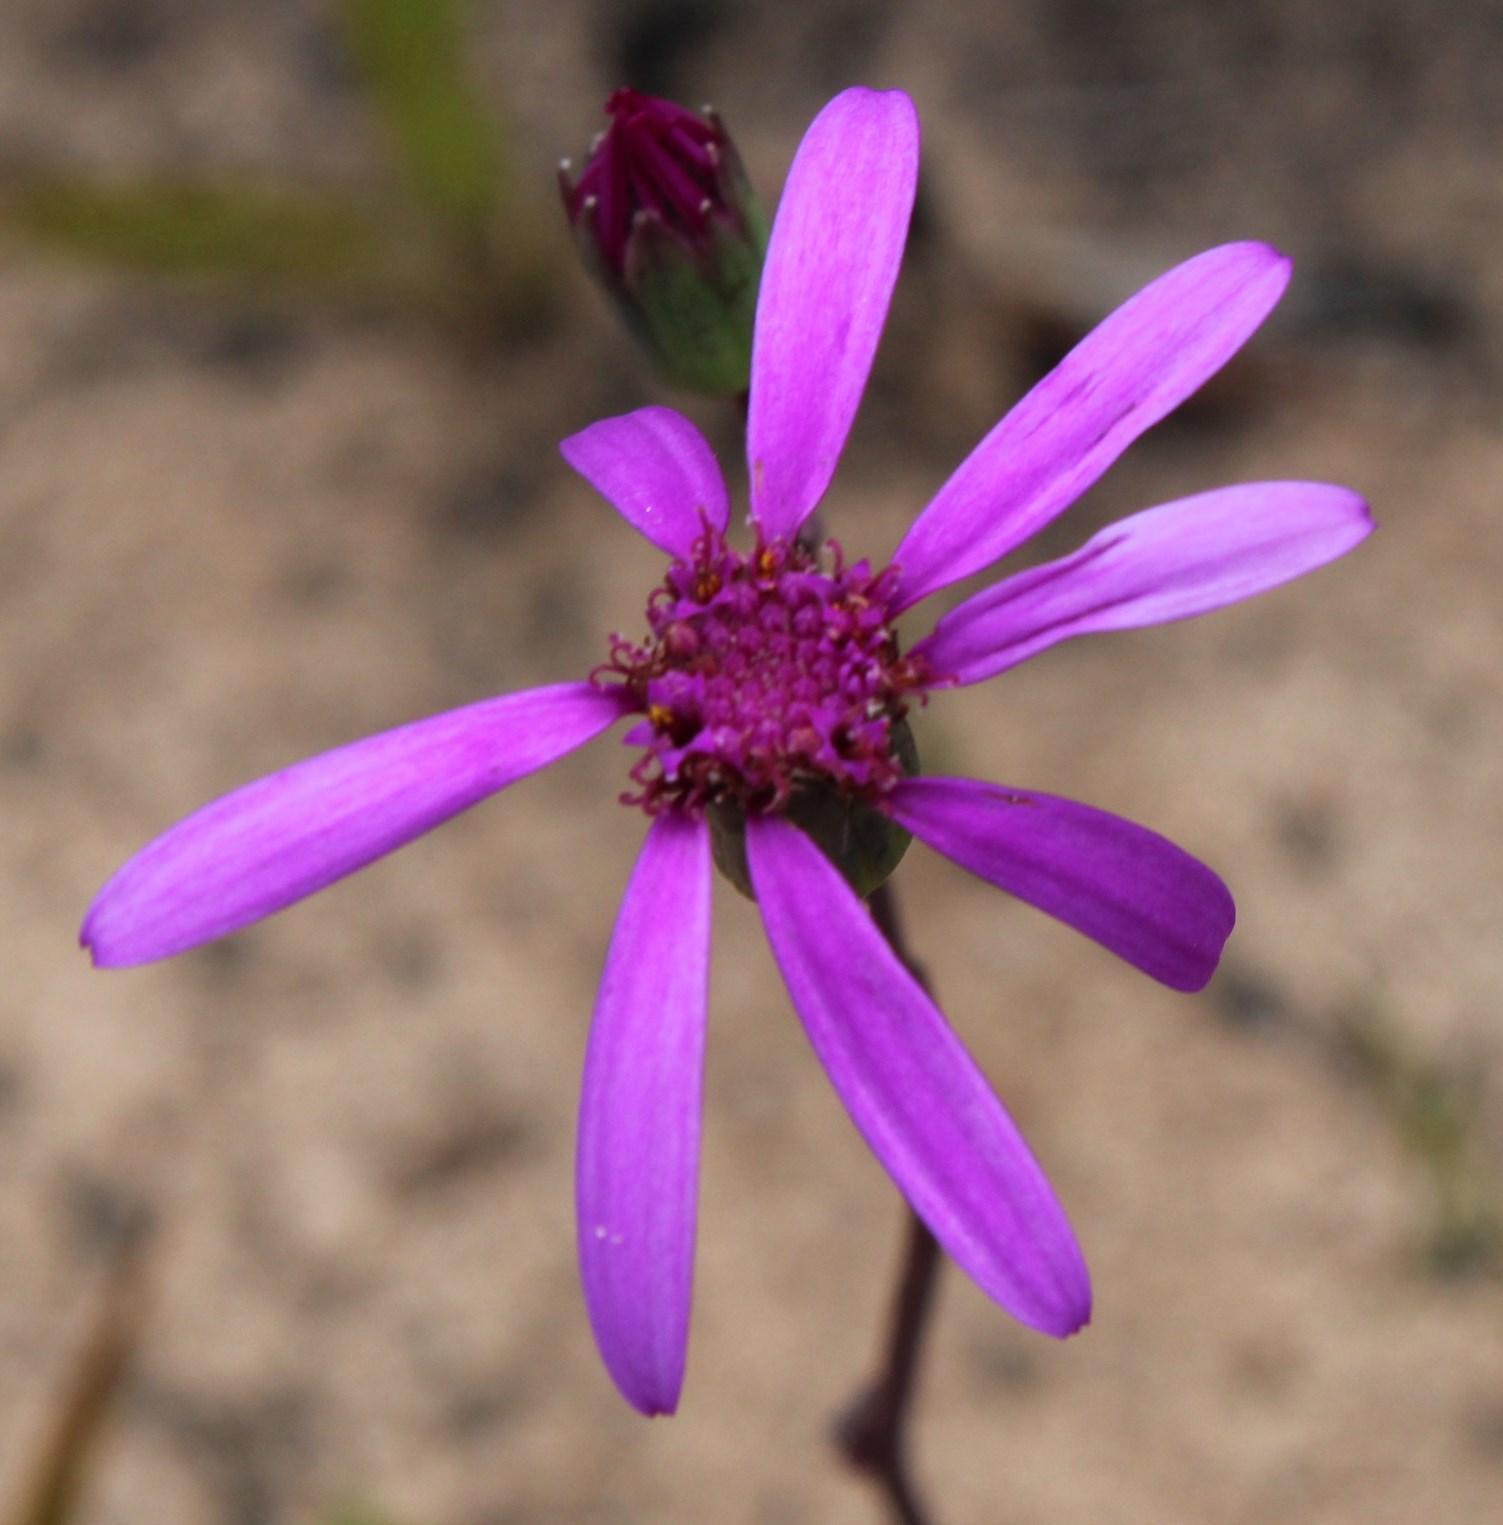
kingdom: Plantae
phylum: Tracheophyta
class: Magnoliopsida
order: Asterales
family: Asteraceae
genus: Senecio
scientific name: Senecio cymbalariifolius
